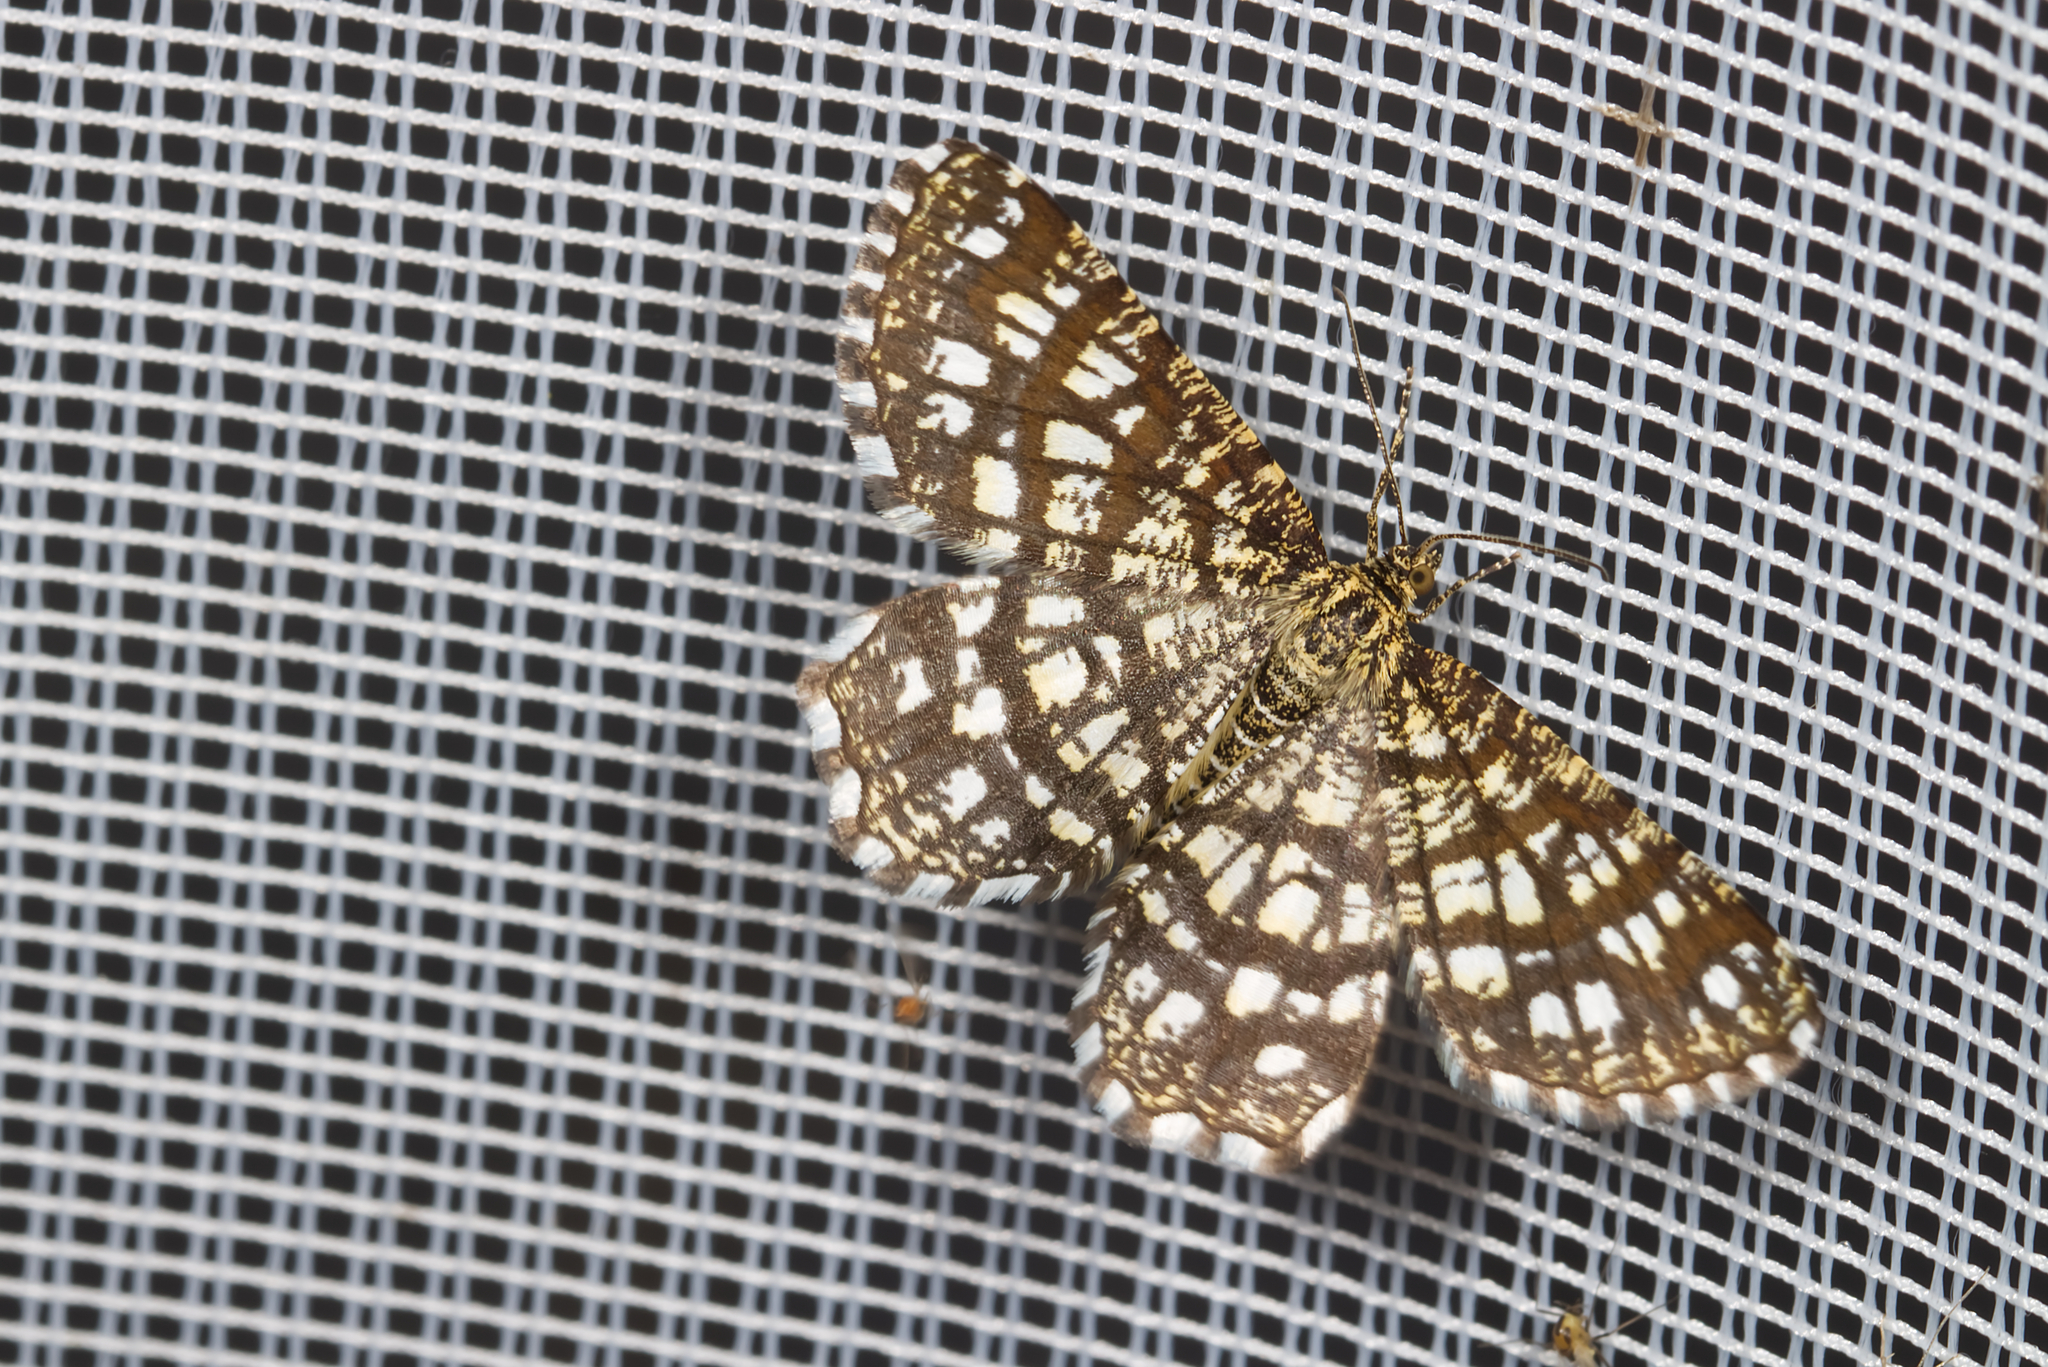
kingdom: Animalia
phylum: Arthropoda
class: Insecta
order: Lepidoptera
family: Geometridae
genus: Chiasmia
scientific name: Chiasmia clathrata
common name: Latticed heath
